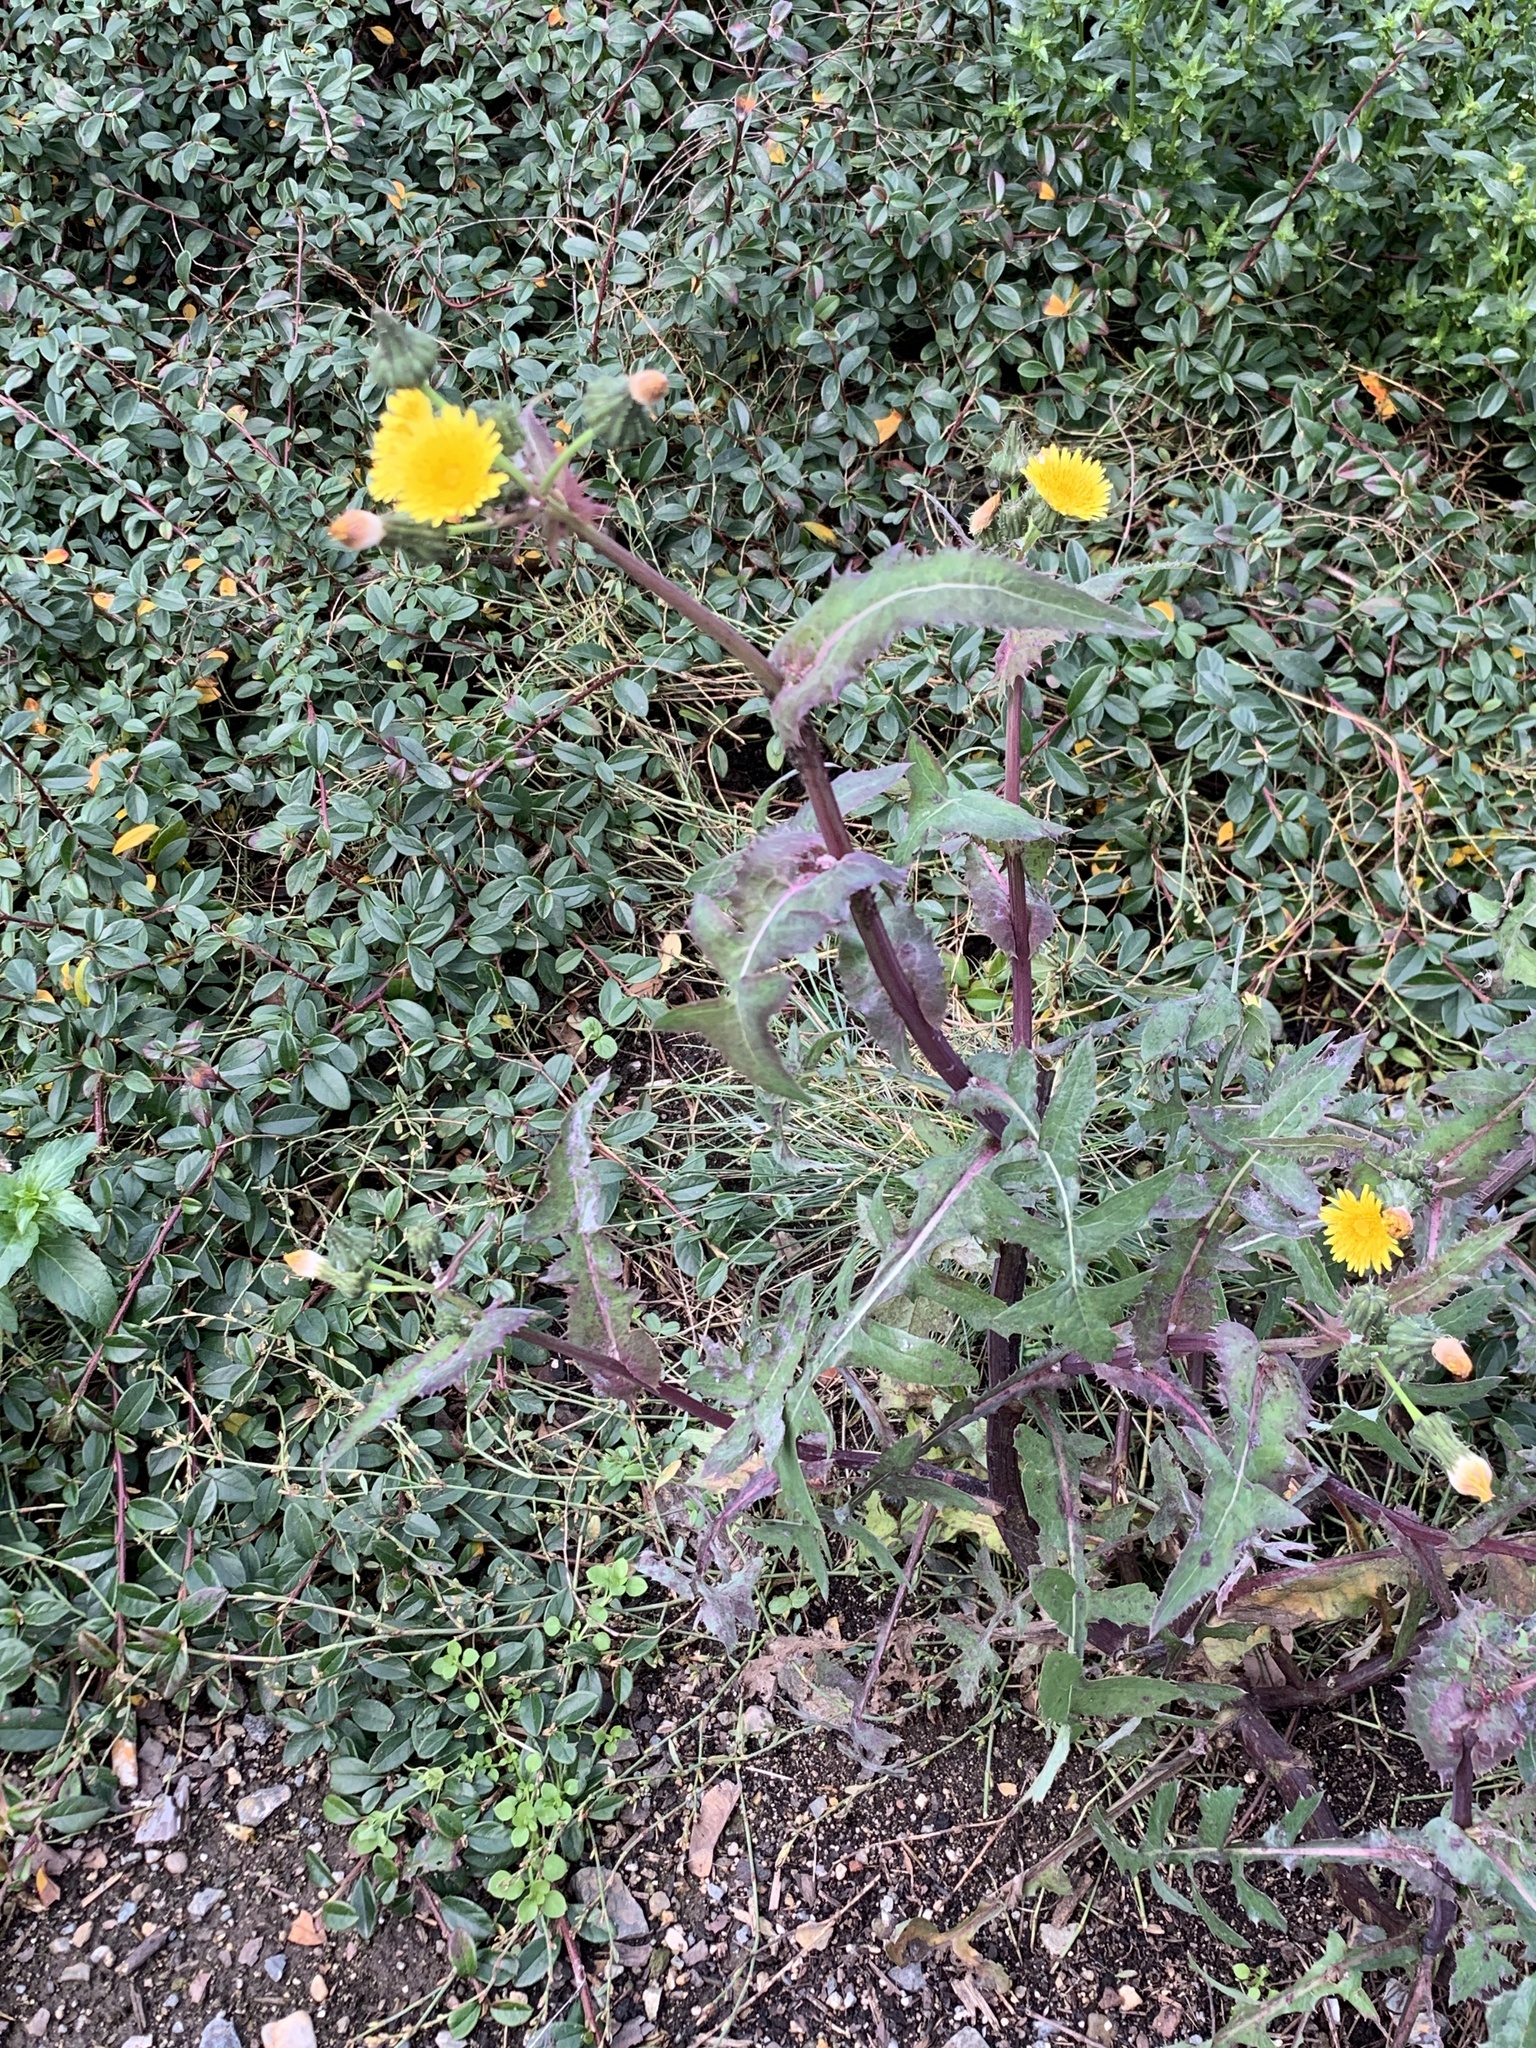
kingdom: Plantae
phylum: Tracheophyta
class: Magnoliopsida
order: Asterales
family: Asteraceae
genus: Sonchus
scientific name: Sonchus oleraceus
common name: Common sowthistle
